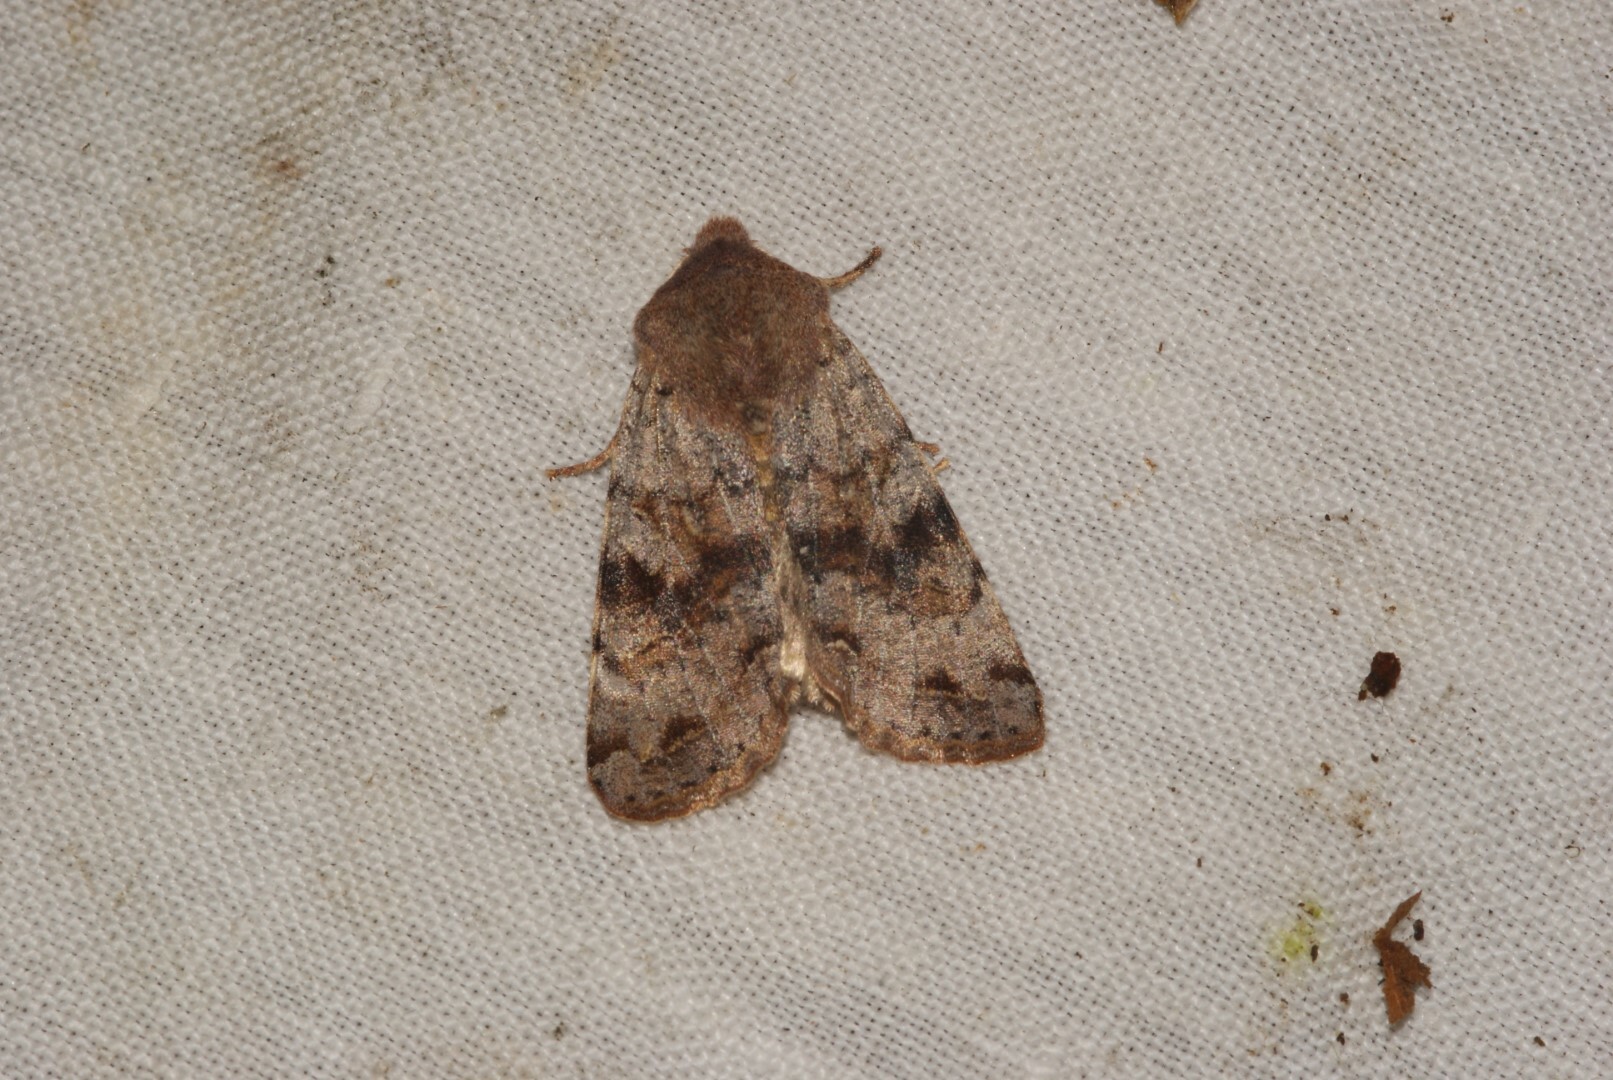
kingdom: Animalia
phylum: Arthropoda
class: Insecta
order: Lepidoptera
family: Noctuidae
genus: Orthosia
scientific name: Orthosia incerta
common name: Clouded drab
